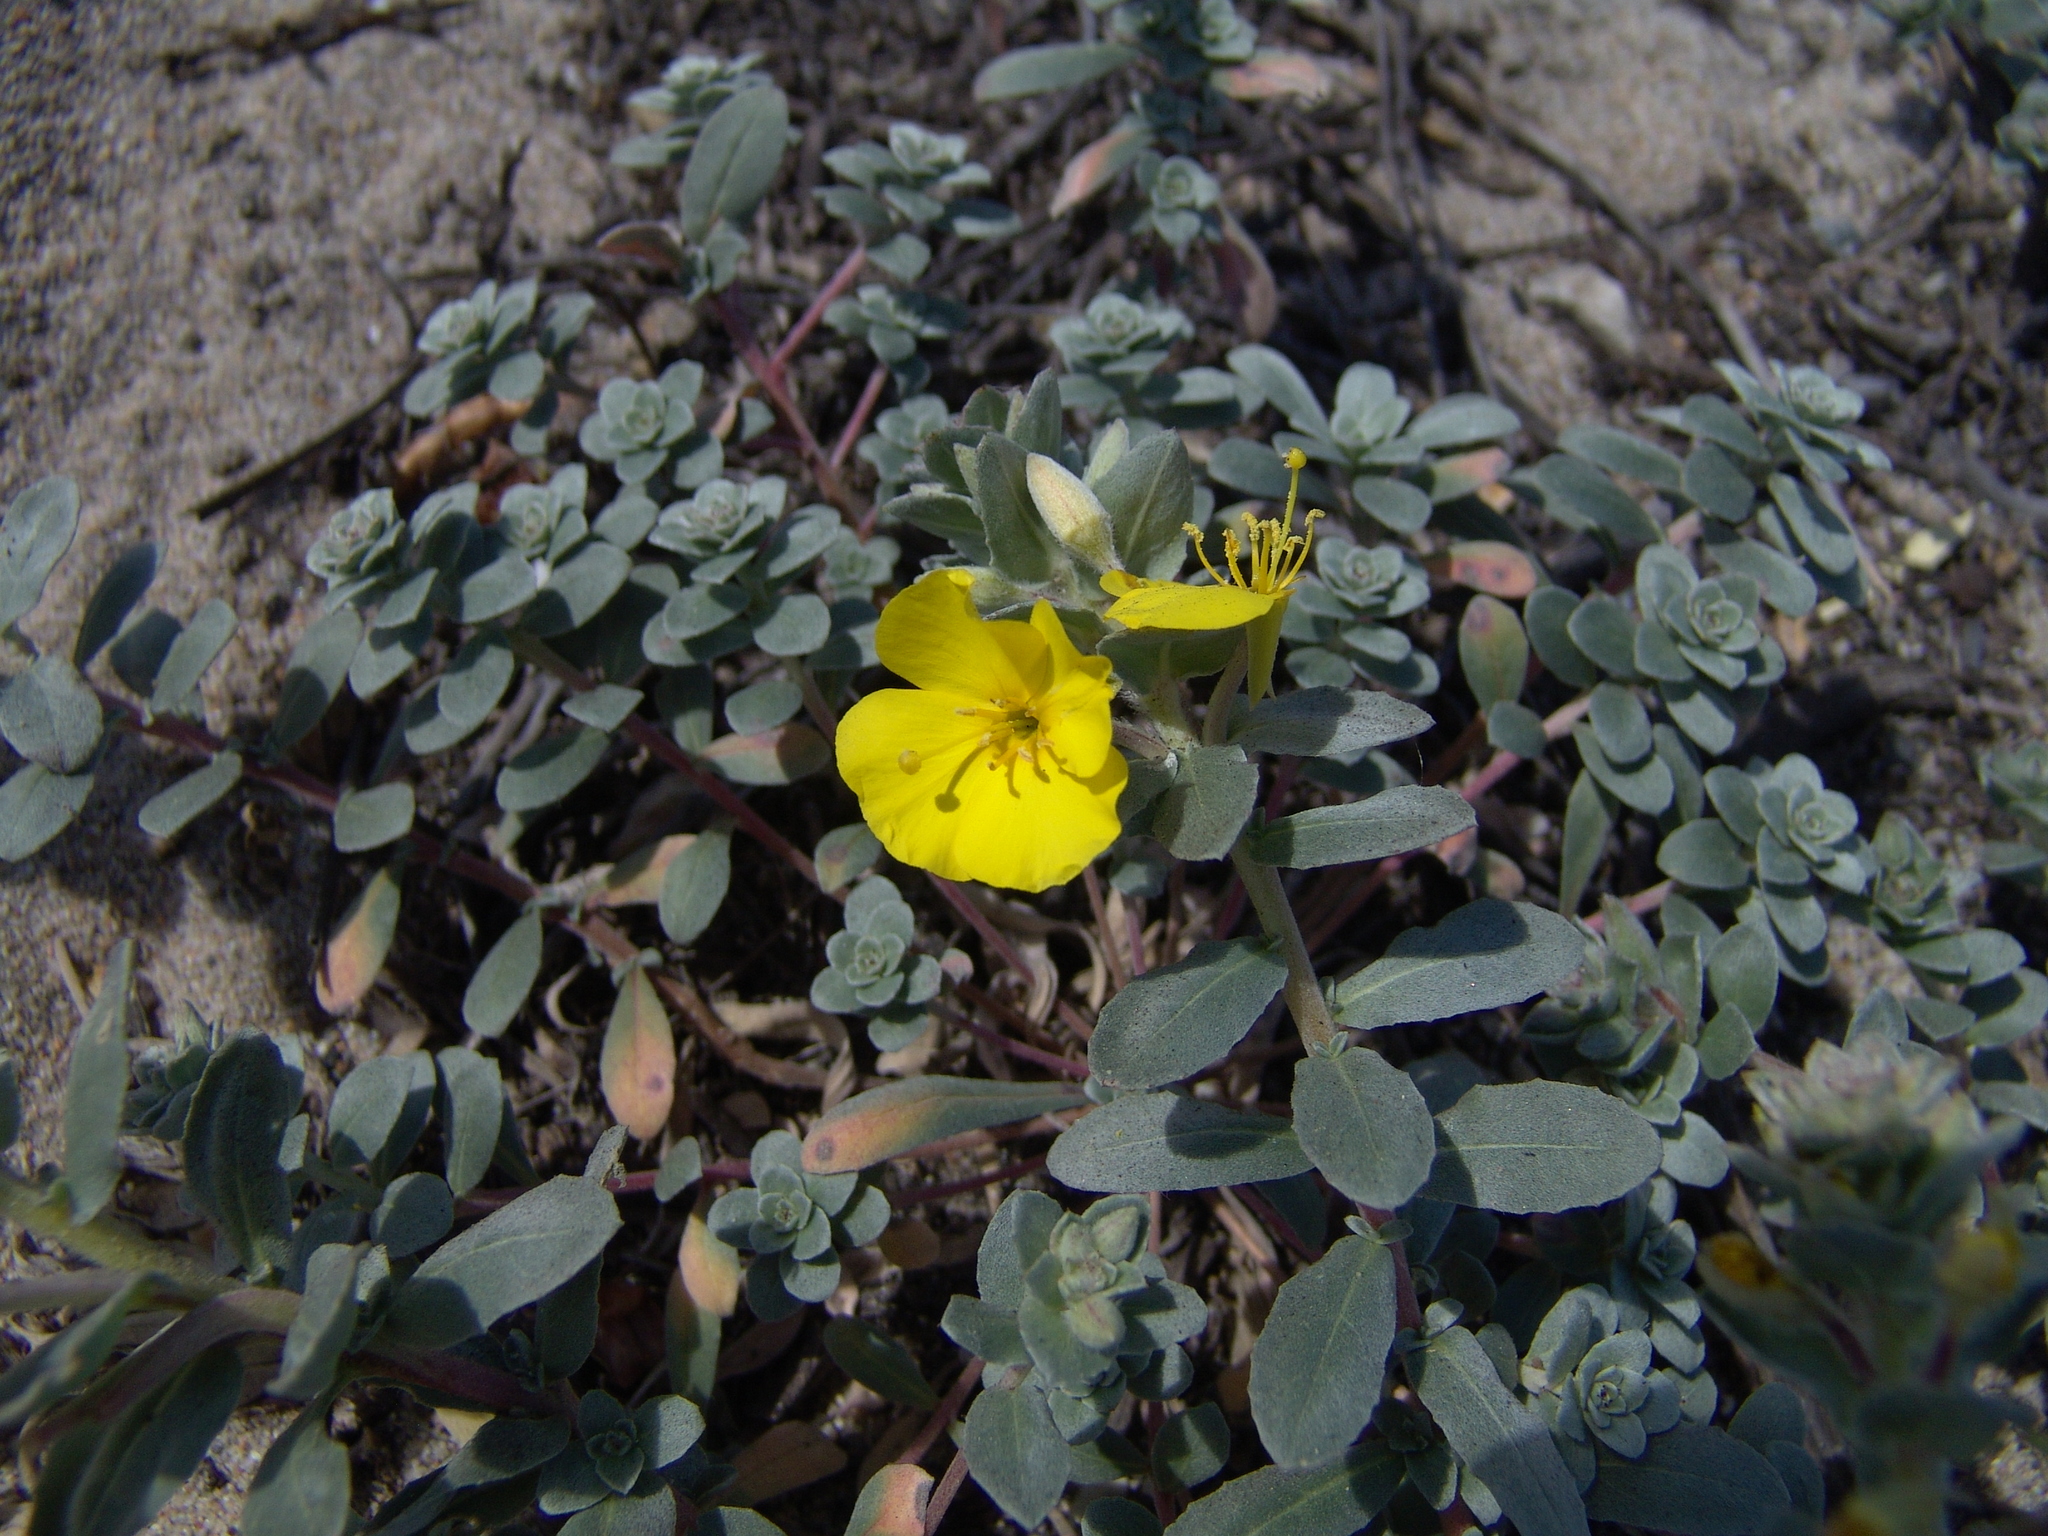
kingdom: Plantae
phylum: Tracheophyta
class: Magnoliopsida
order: Myrtales
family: Onagraceae
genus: Camissoniopsis
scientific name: Camissoniopsis cheiranthifolia
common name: Beach suncup
